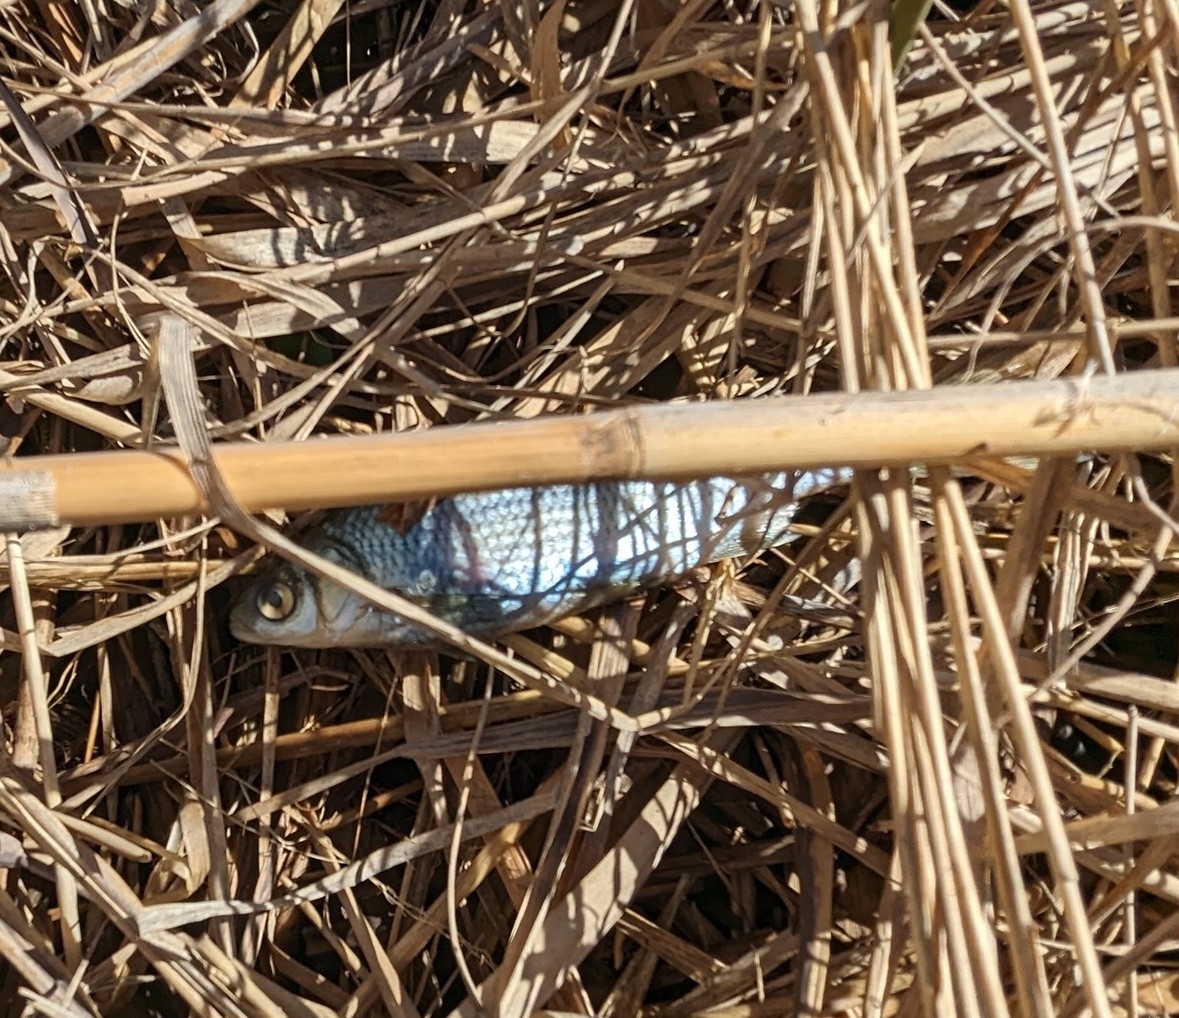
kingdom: Animalia
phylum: Chordata
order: Cypriniformes
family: Cyprinidae
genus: Notemigonus
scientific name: Notemigonus crysoleucas
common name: Golden shiner
